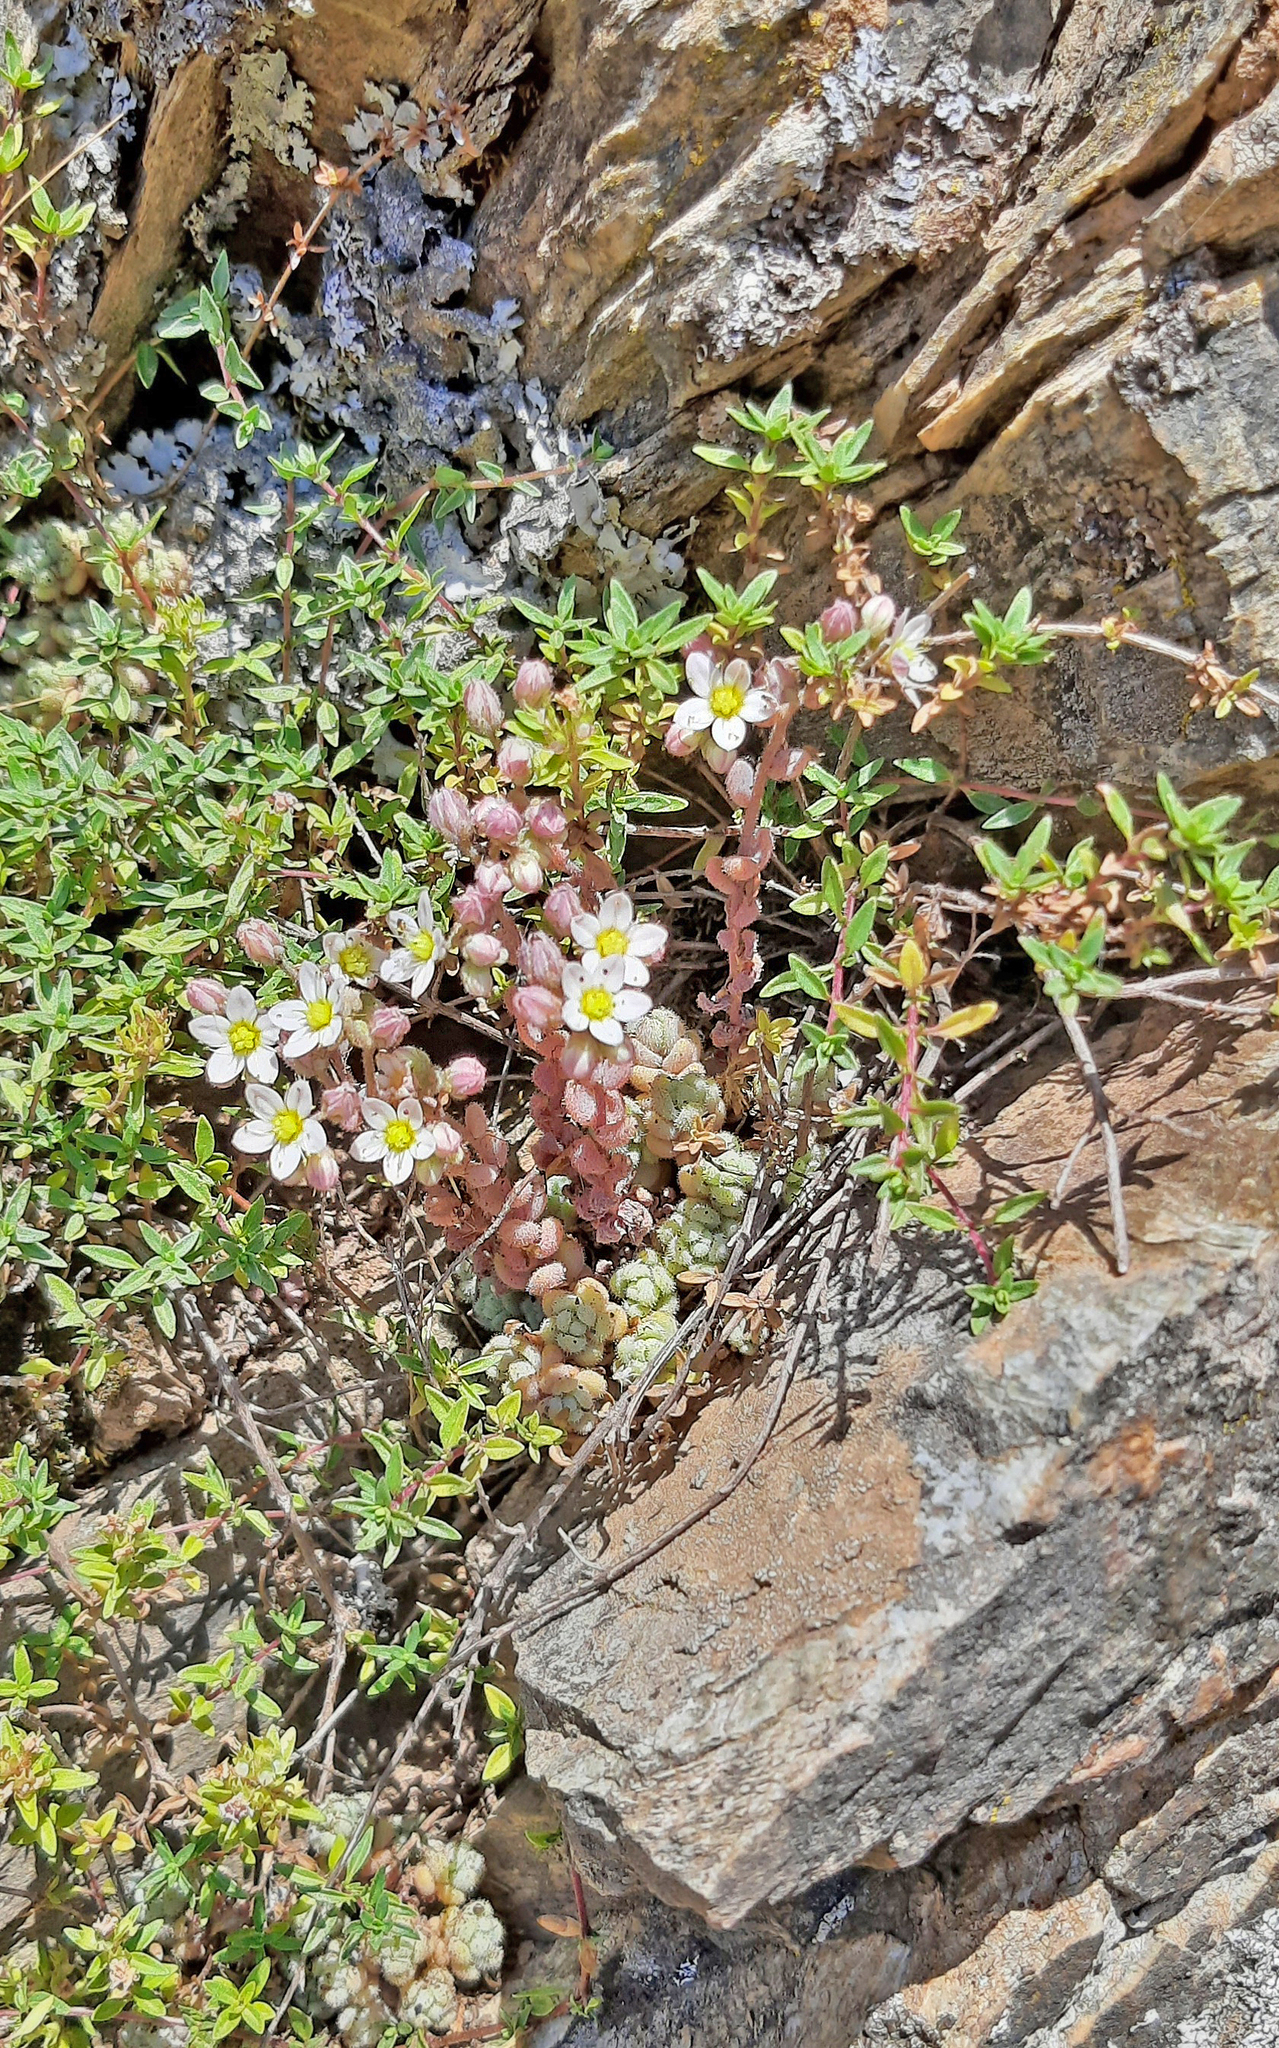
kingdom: Plantae
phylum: Tracheophyta
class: Magnoliopsida
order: Saxifragales
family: Crassulaceae
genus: Sedum
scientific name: Sedum dasyphyllum
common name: Thick-leaf stonecrop
